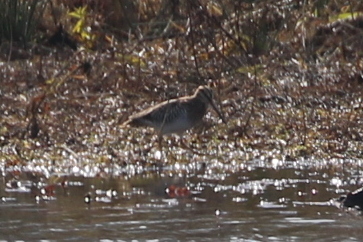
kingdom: Animalia
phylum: Chordata
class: Aves
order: Charadriiformes
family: Scolopacidae
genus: Gallinago
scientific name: Gallinago delicata
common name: Wilson's snipe
